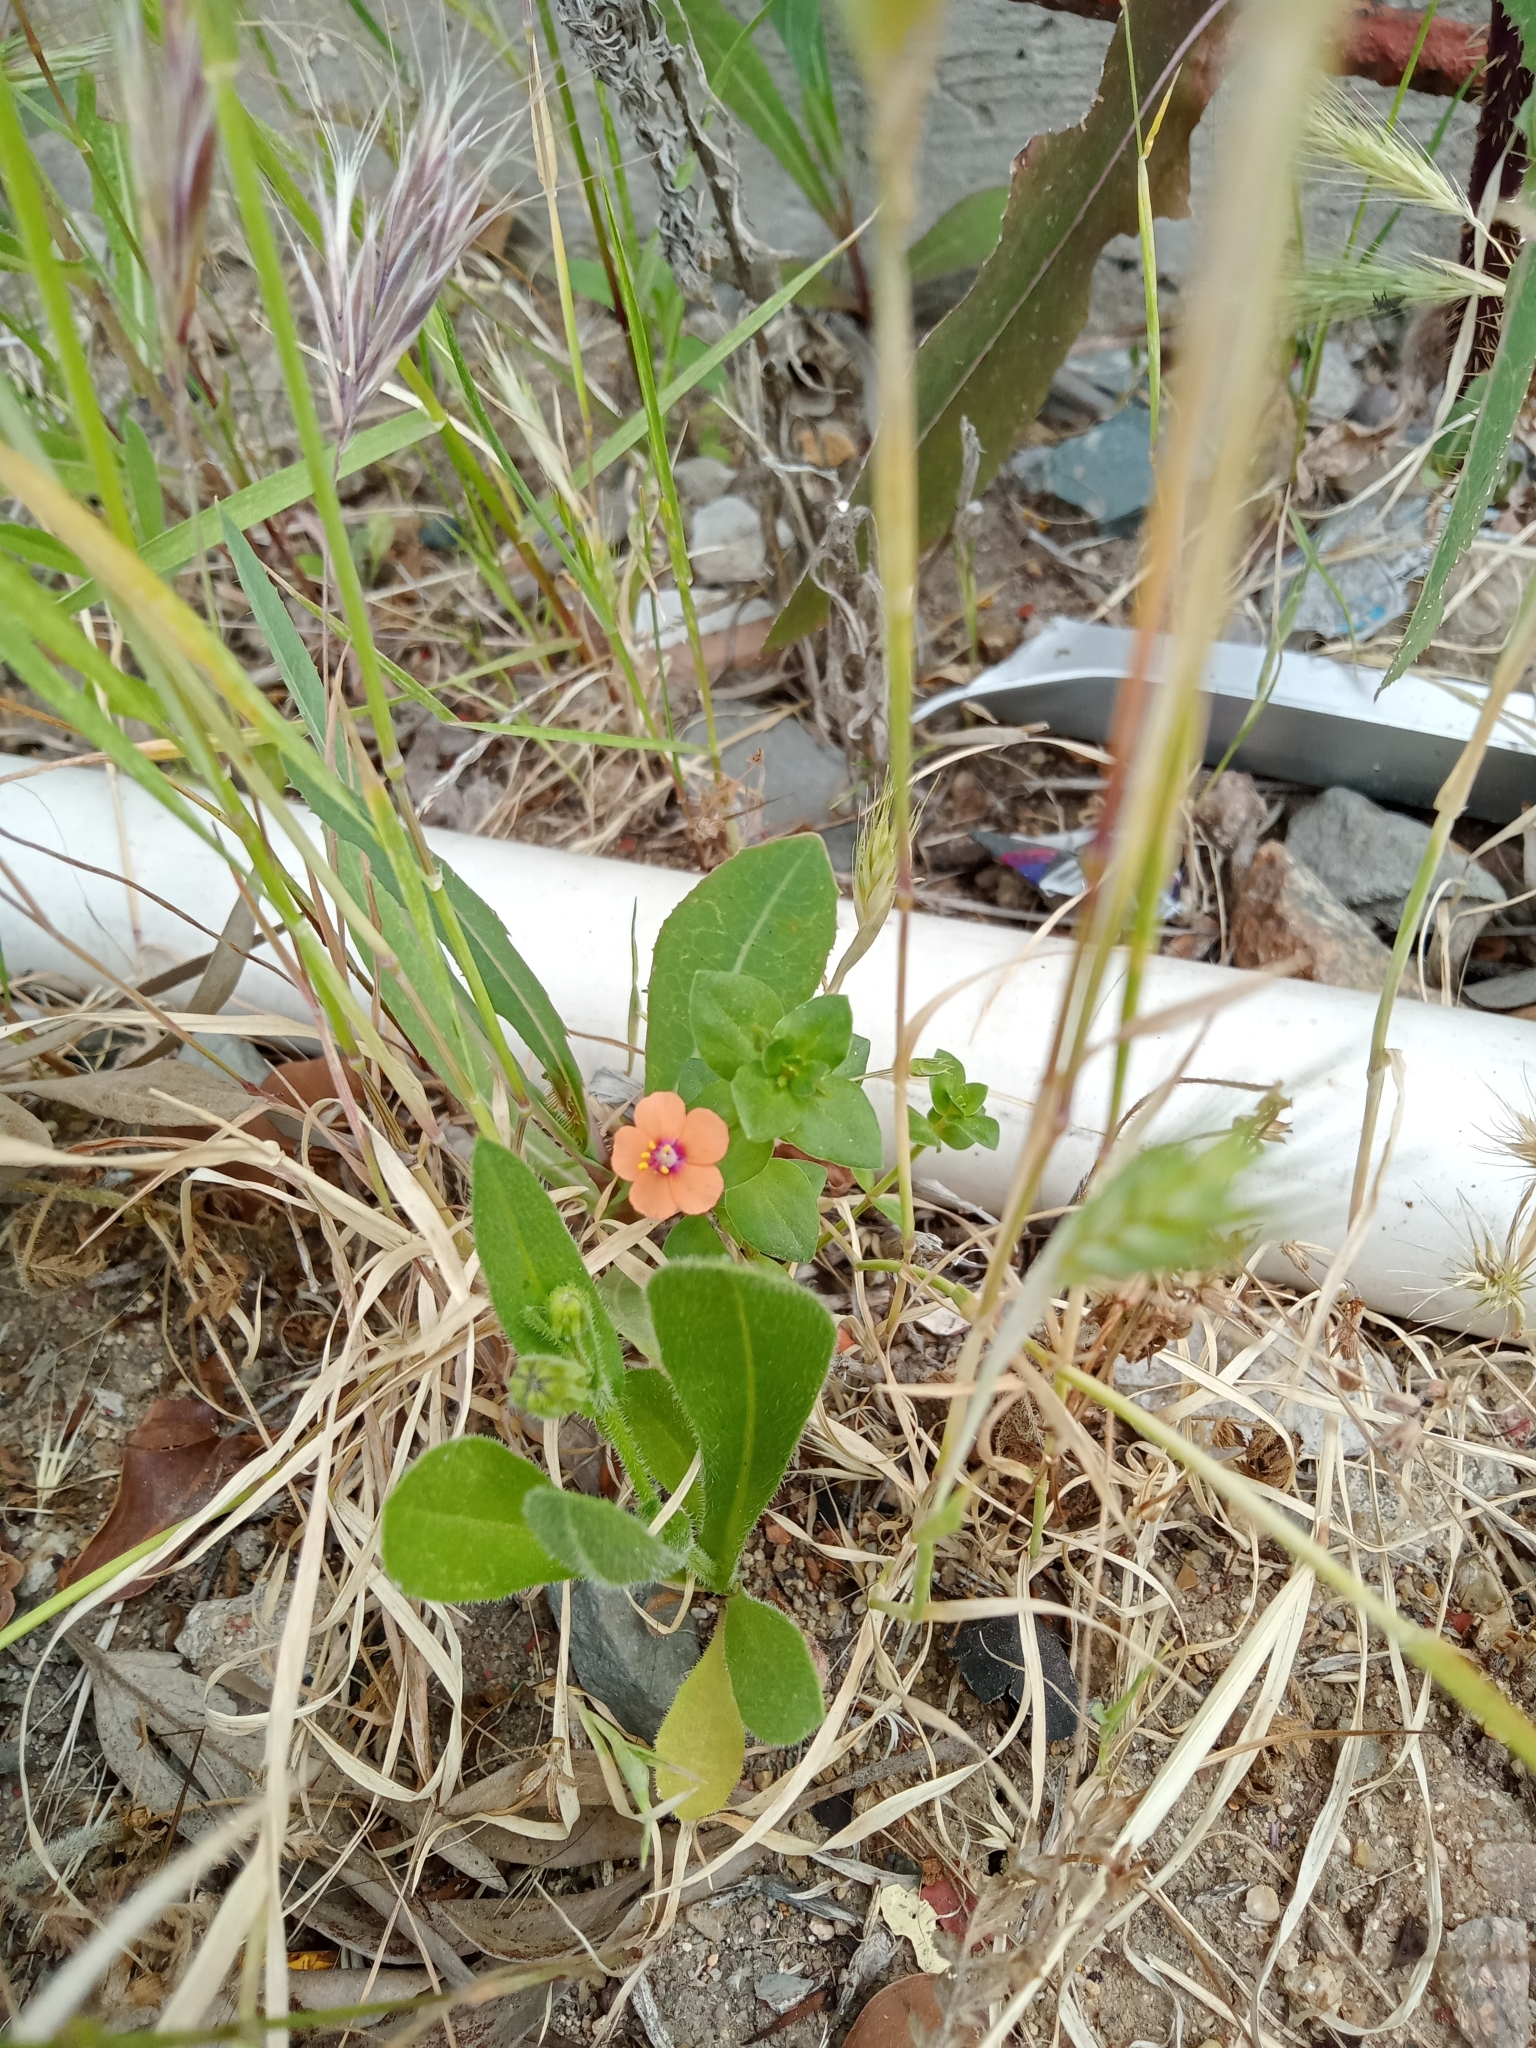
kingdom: Plantae
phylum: Tracheophyta
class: Magnoliopsida
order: Ericales
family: Primulaceae
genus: Lysimachia
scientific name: Lysimachia arvensis
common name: Scarlet pimpernel
